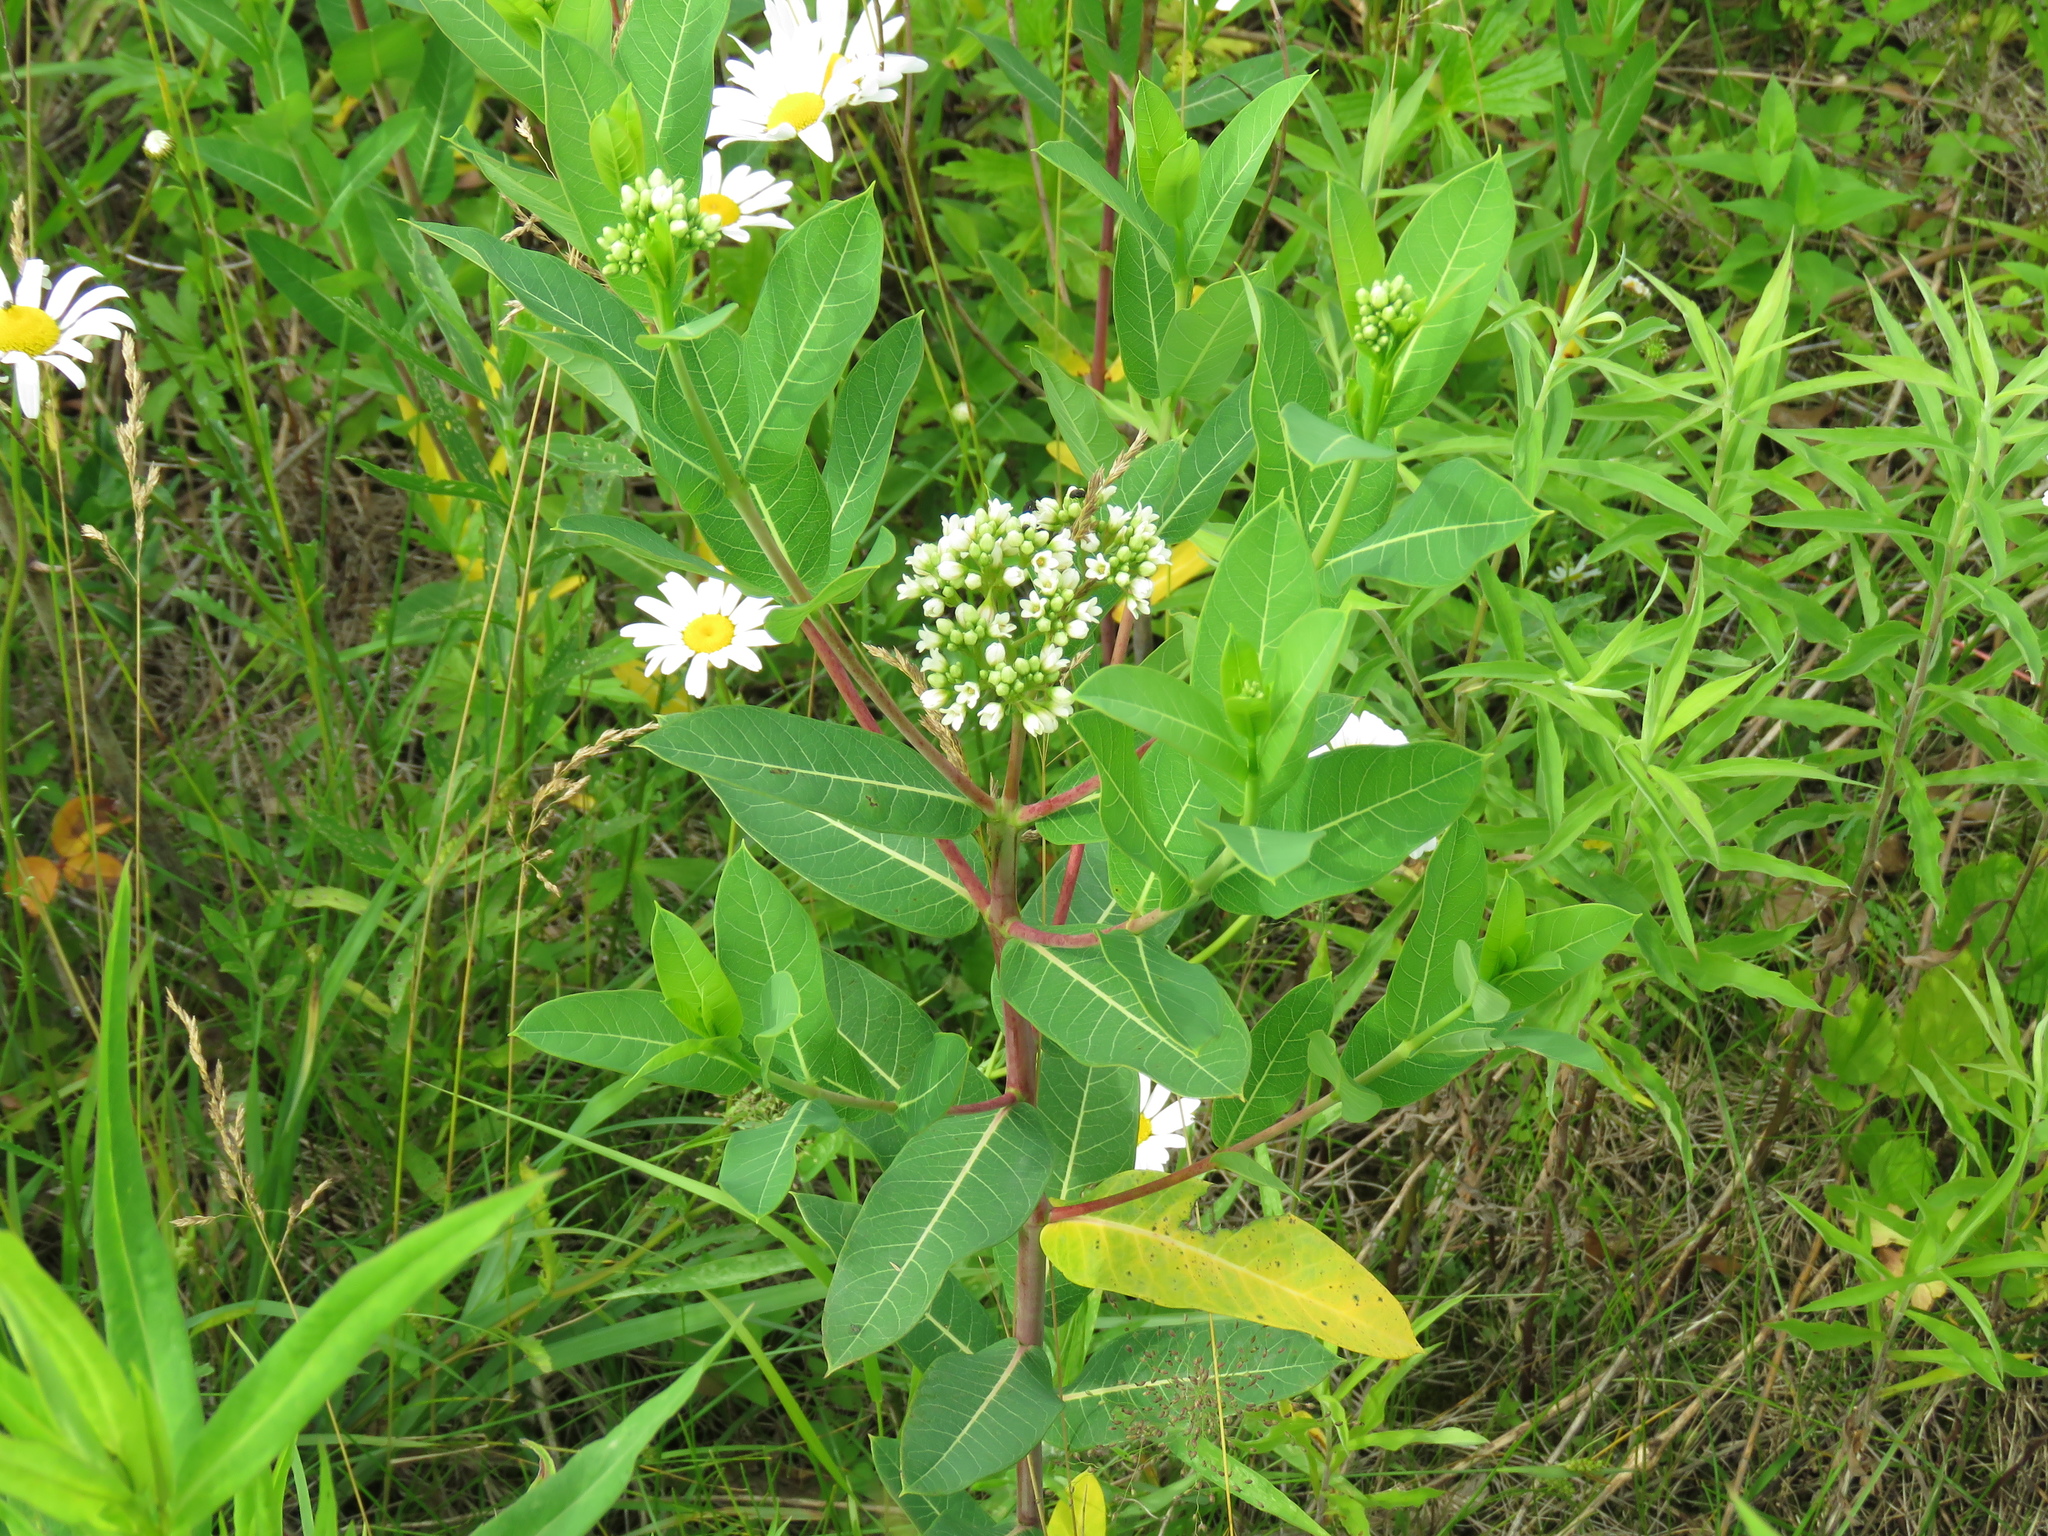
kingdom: Plantae
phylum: Tracheophyta
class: Magnoliopsida
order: Gentianales
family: Apocynaceae
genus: Apocynum
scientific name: Apocynum cannabinum
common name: Hemp dogbane
